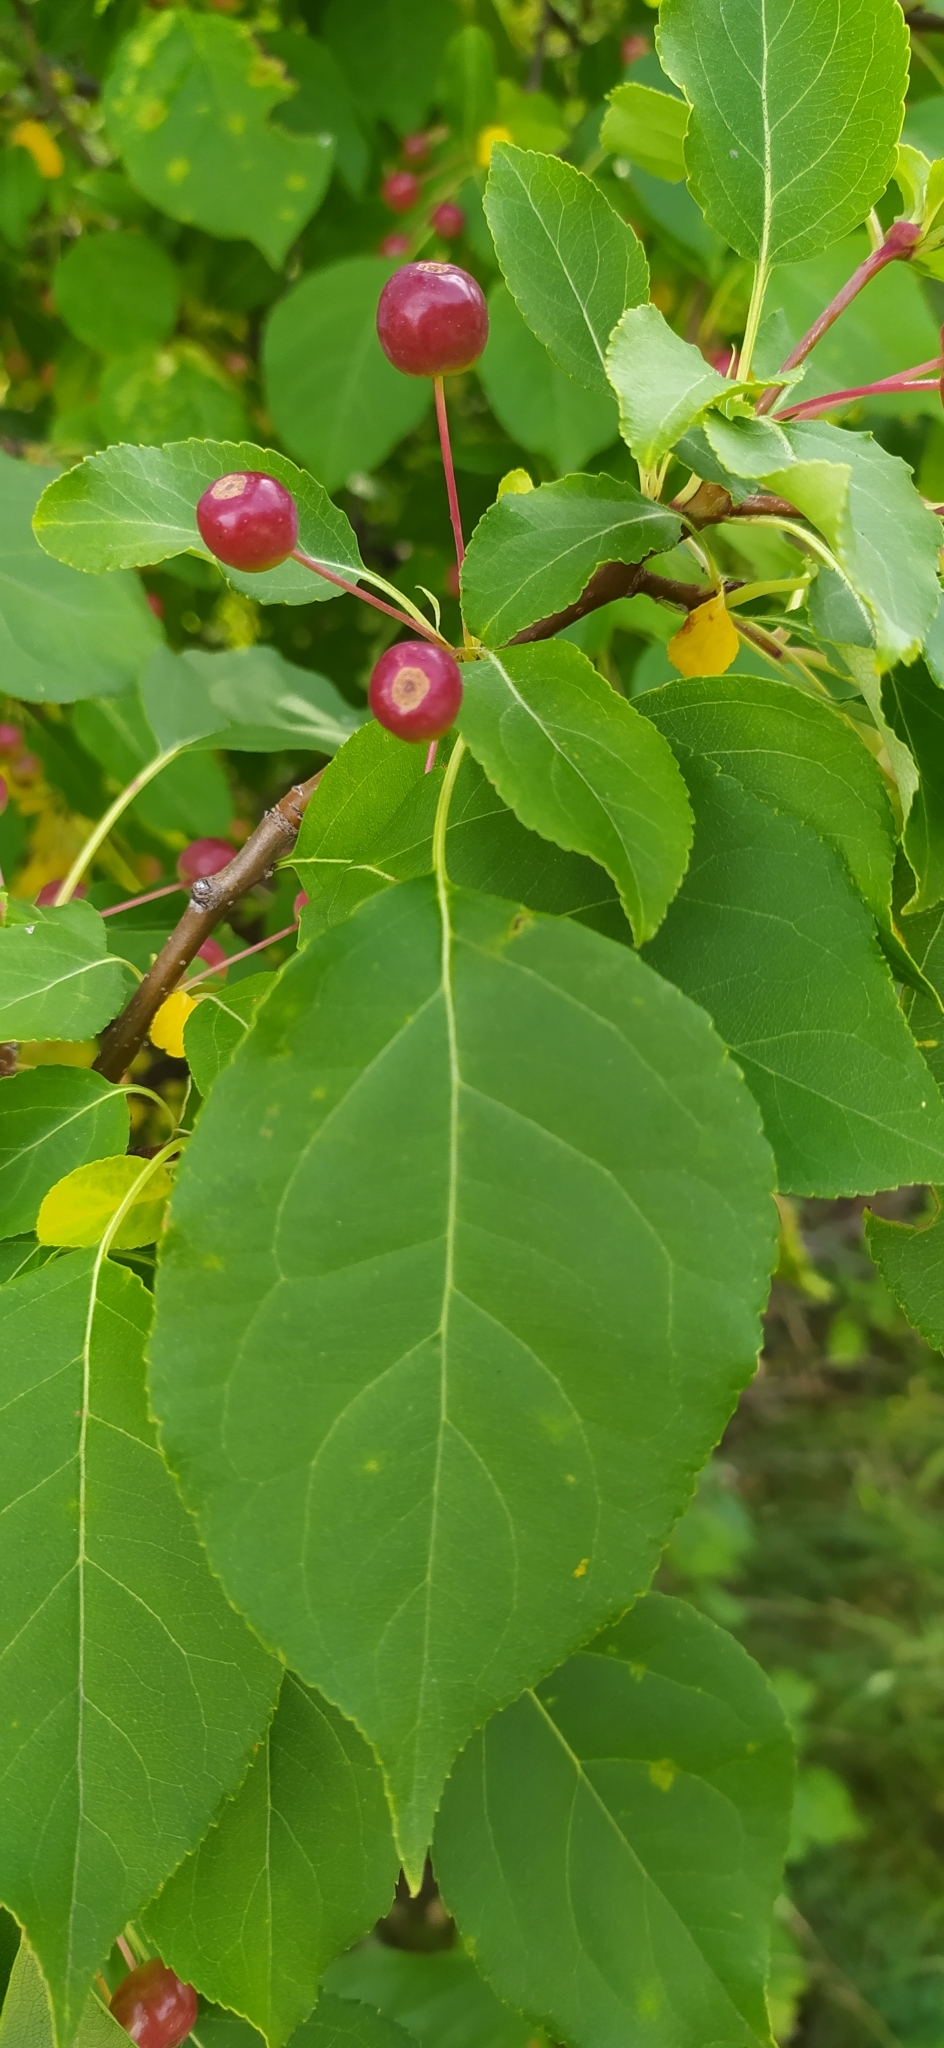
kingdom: Plantae
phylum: Tracheophyta
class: Magnoliopsida
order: Rosales
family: Rosaceae
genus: Malus
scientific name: Malus baccata
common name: Siberian crab
